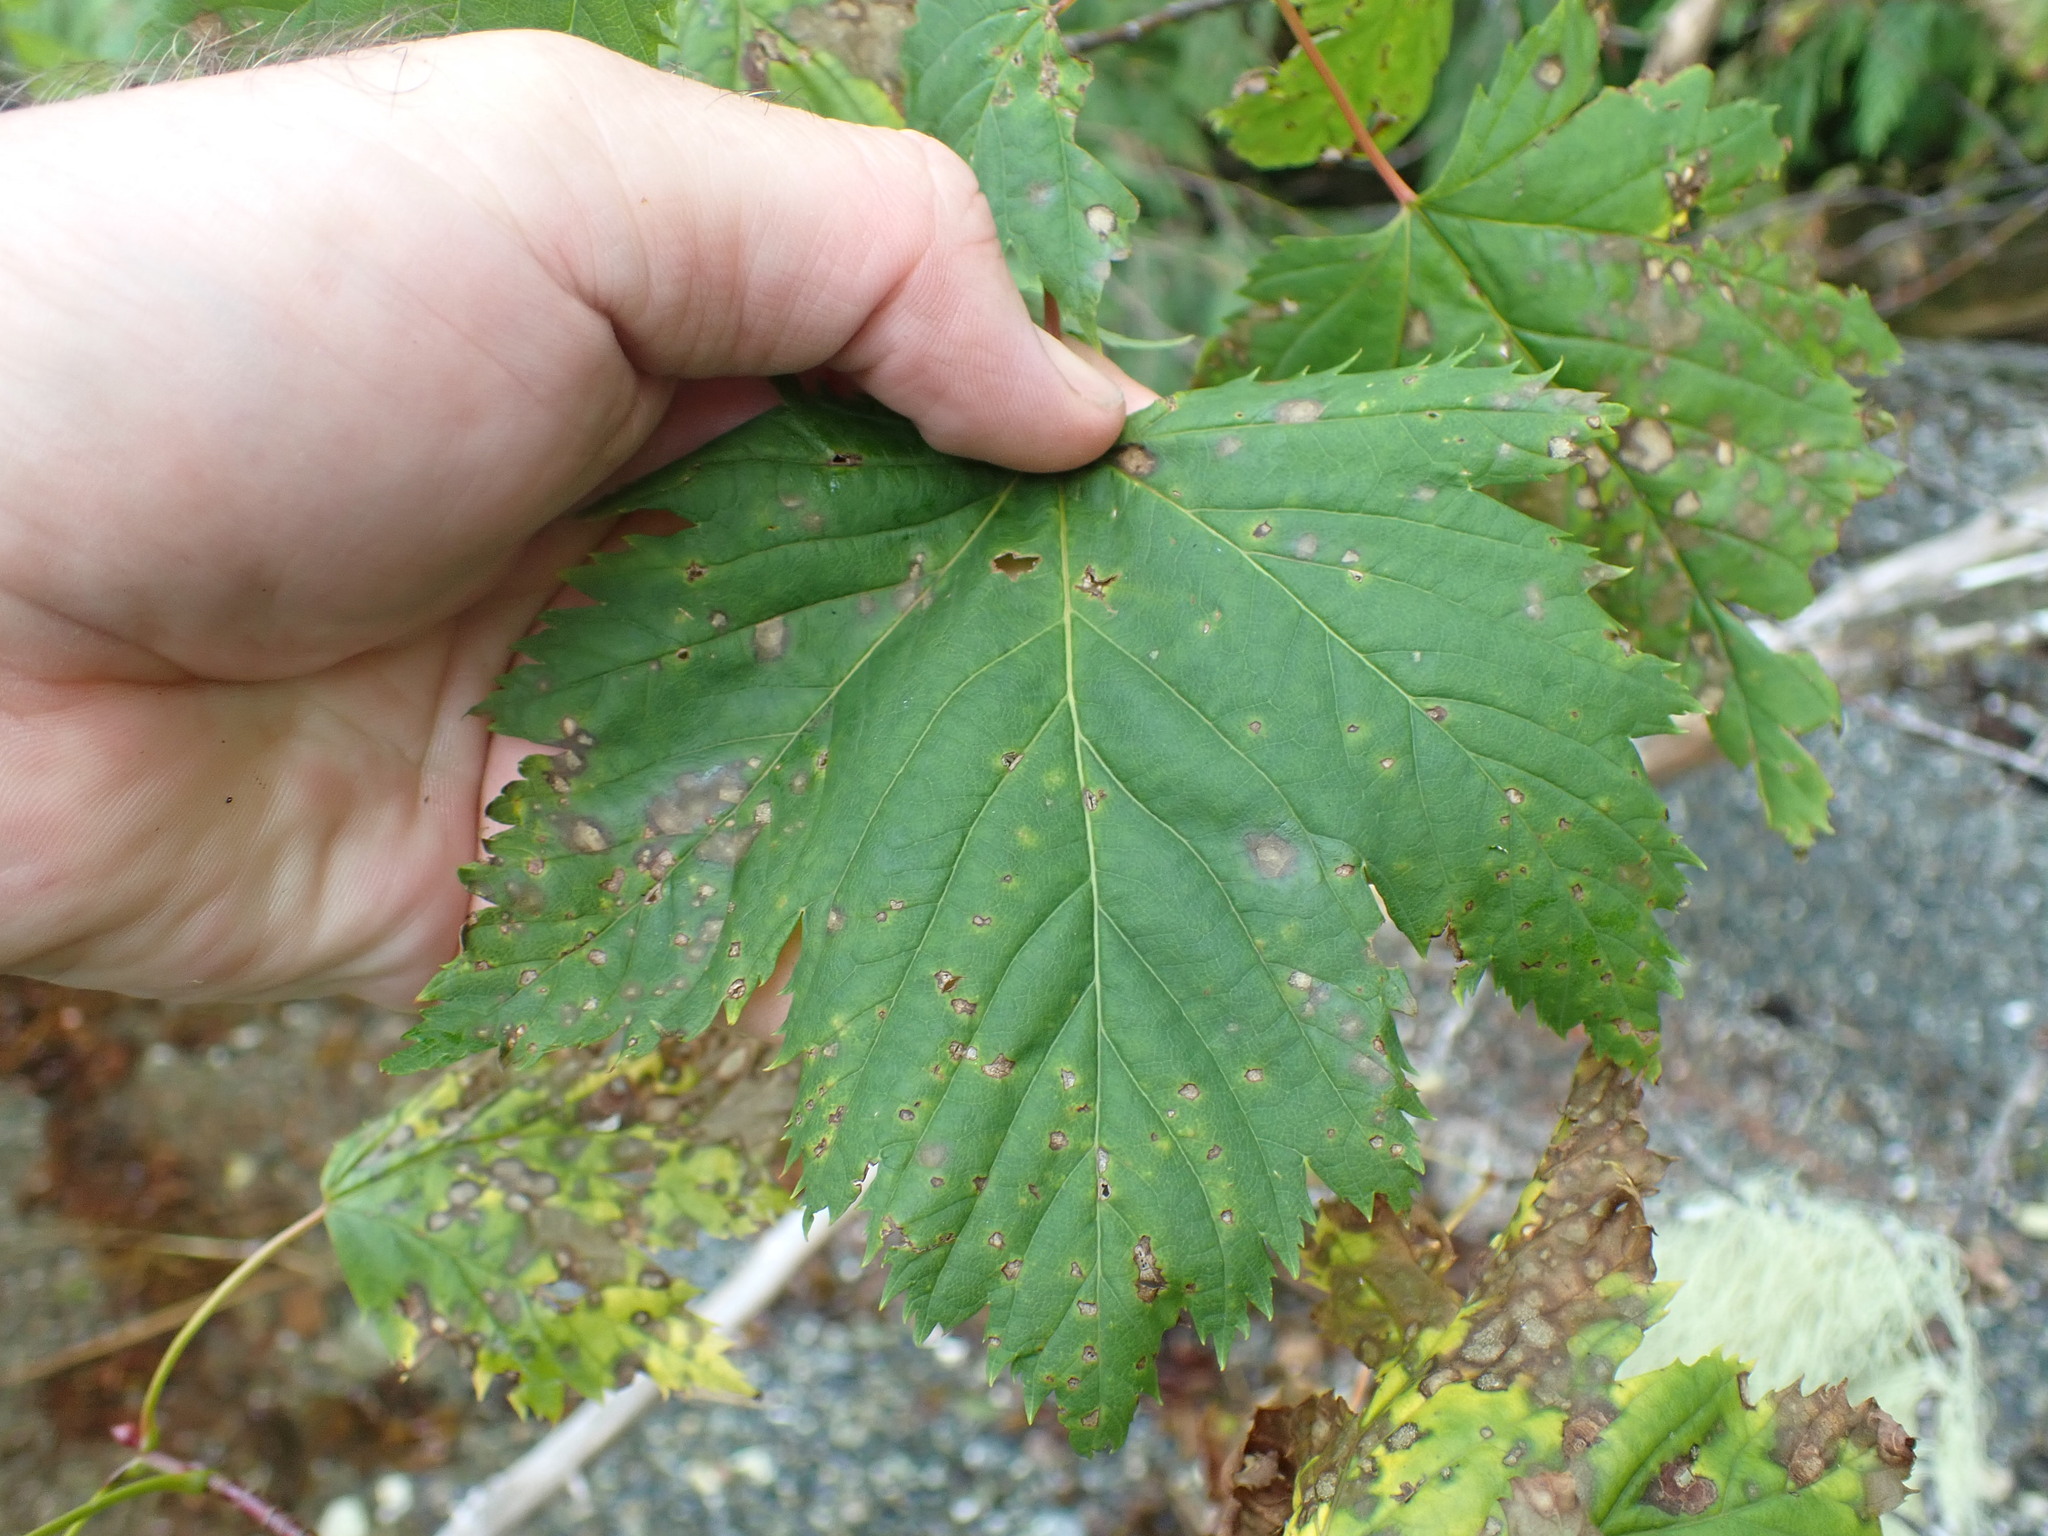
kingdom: Plantae
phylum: Tracheophyta
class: Magnoliopsida
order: Sapindales
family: Sapindaceae
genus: Acer
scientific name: Acer glabrum
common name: Rocky mountain maple
